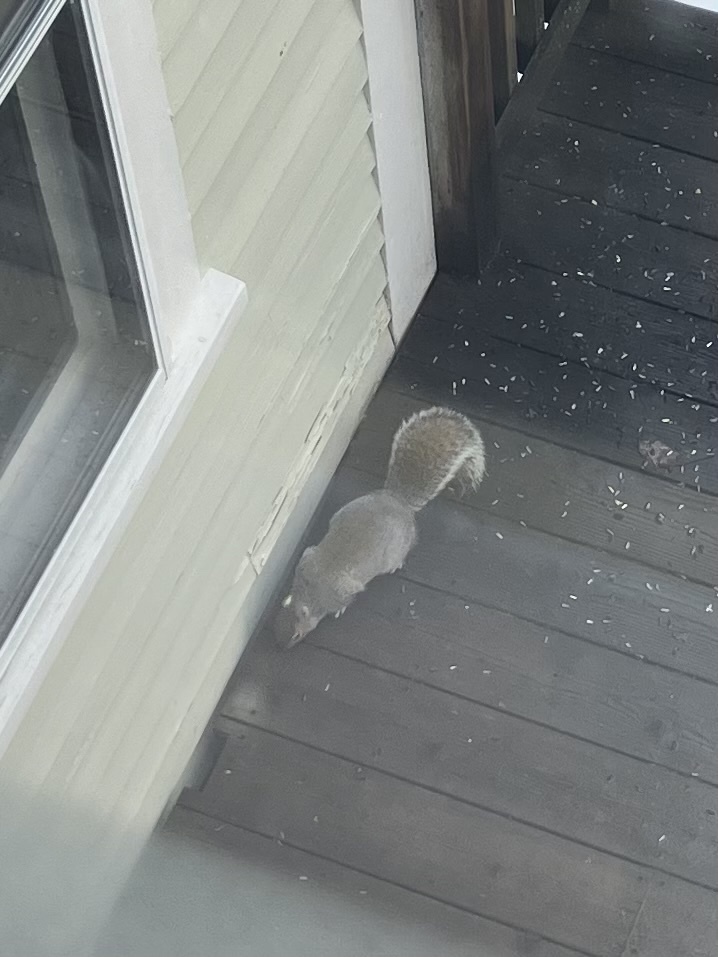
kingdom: Animalia
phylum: Chordata
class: Mammalia
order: Rodentia
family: Sciuridae
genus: Sciurus
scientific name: Sciurus carolinensis
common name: Eastern gray squirrel
